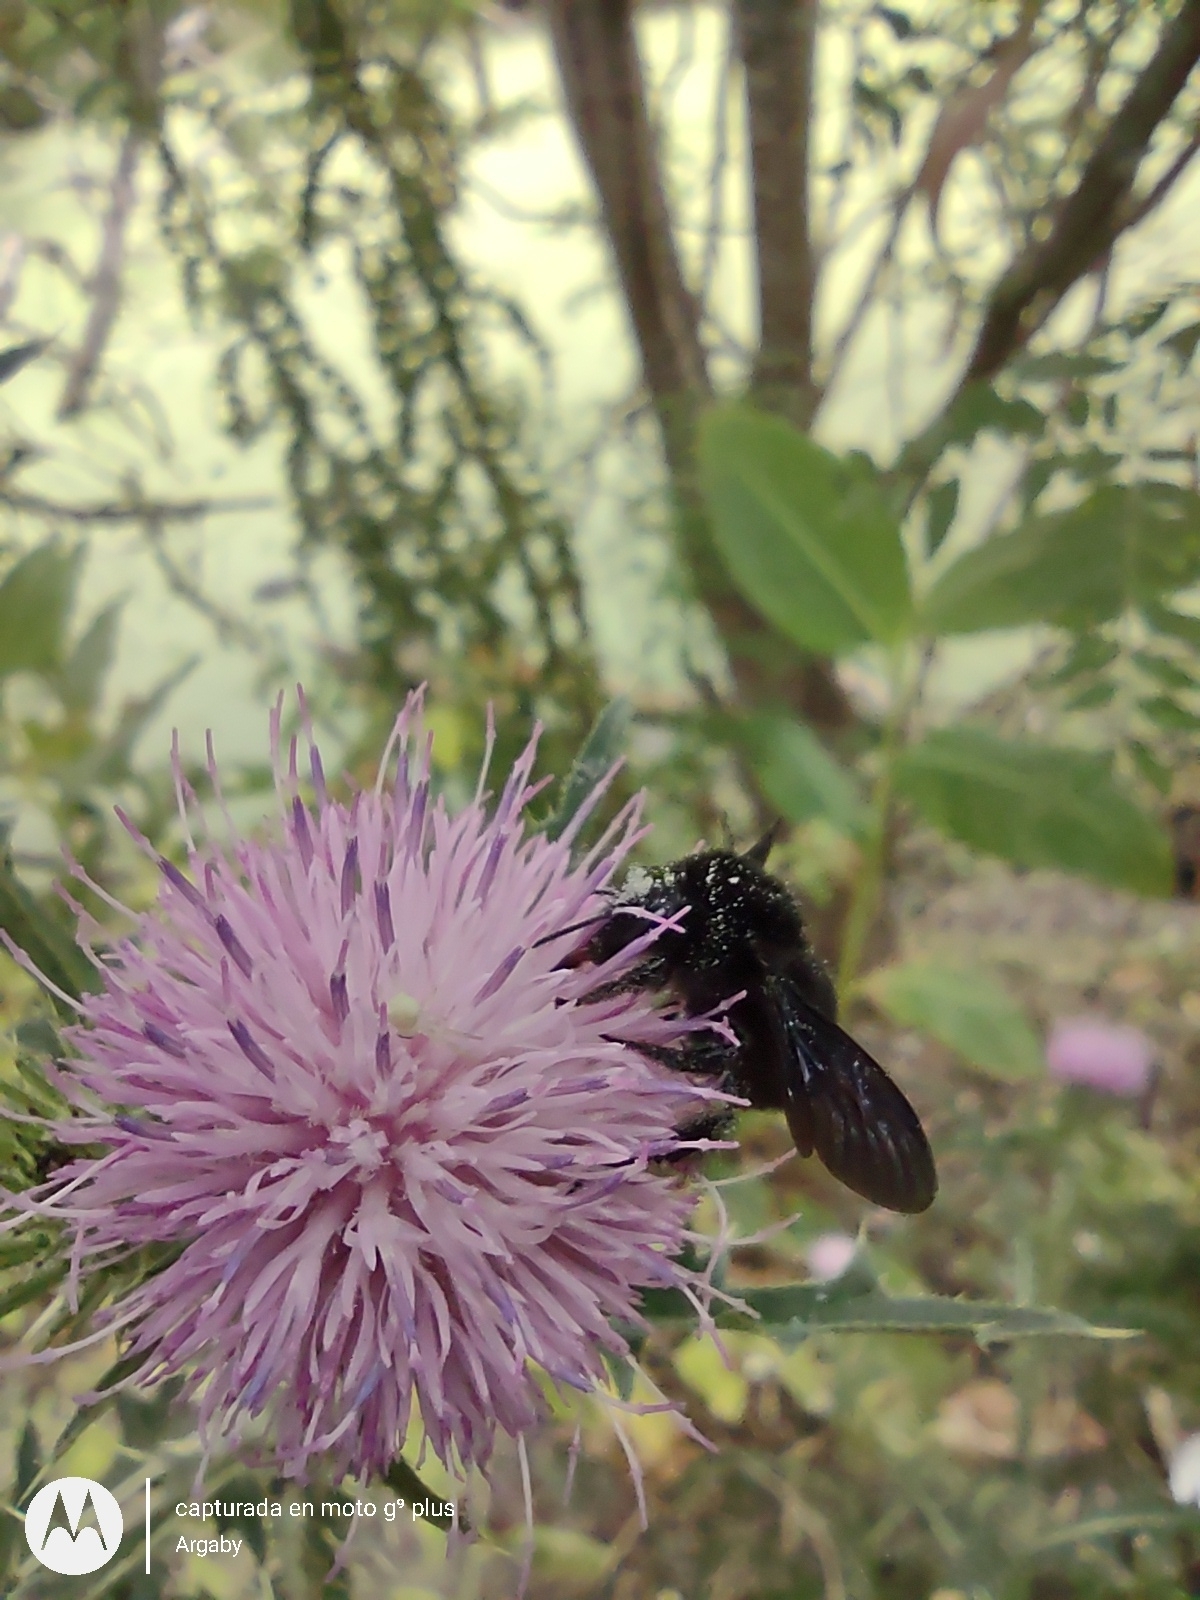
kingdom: Animalia
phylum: Arthropoda
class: Insecta
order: Hymenoptera
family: Apidae
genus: Bombus
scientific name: Bombus pauloensis
